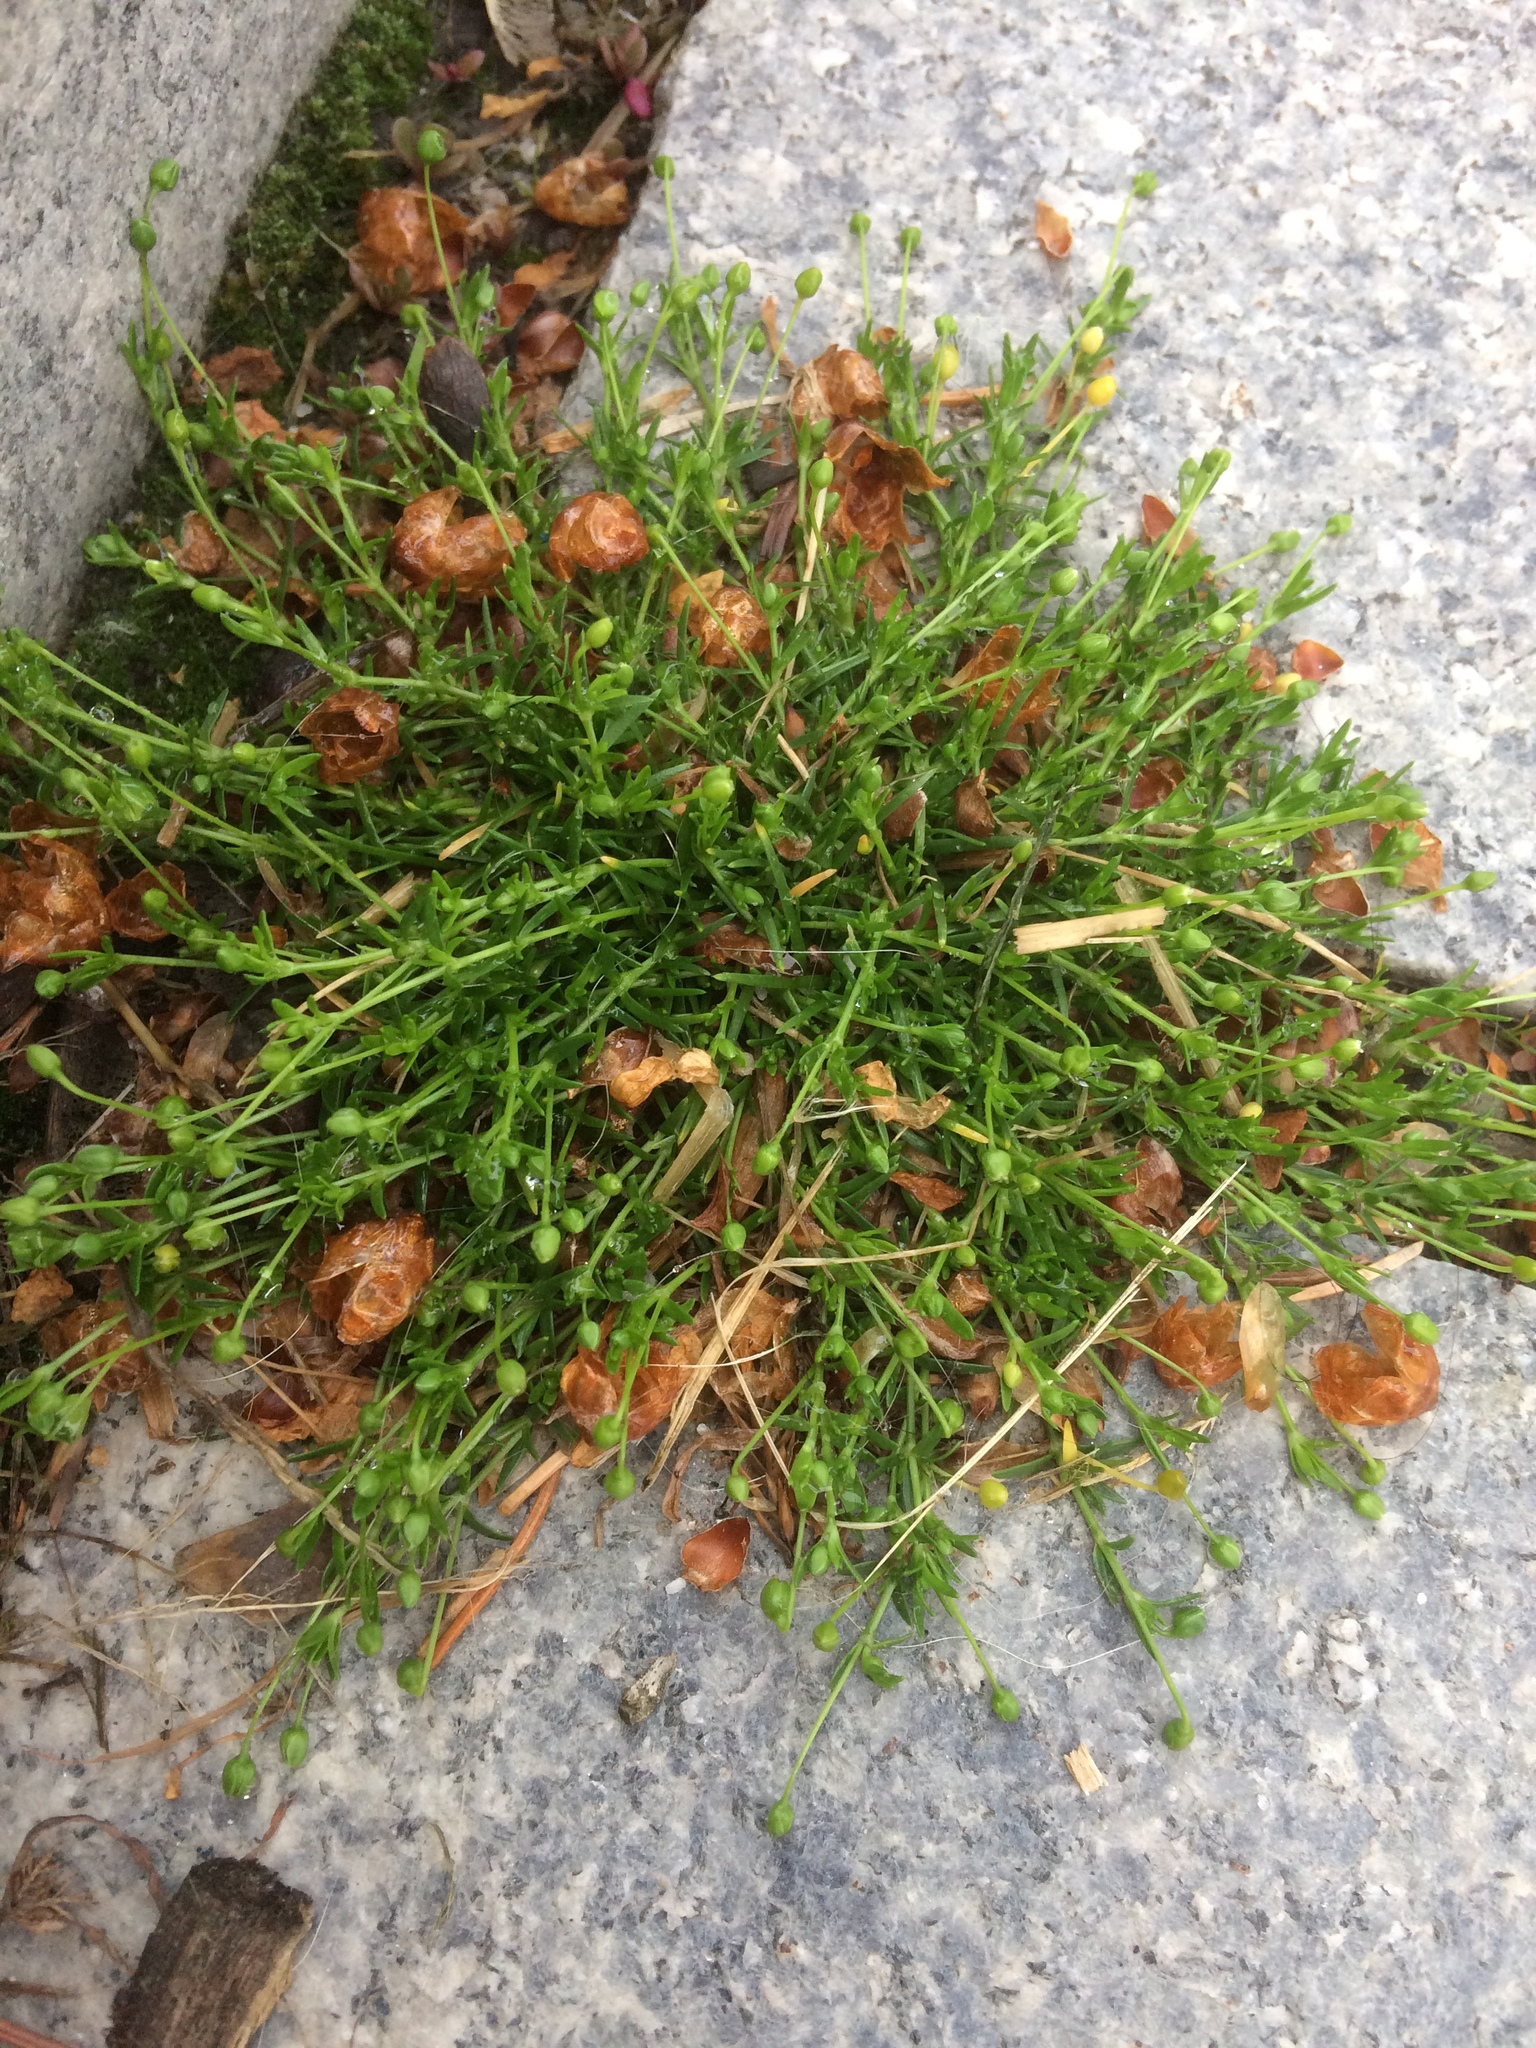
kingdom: Plantae
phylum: Tracheophyta
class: Magnoliopsida
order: Caryophyllales
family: Caryophyllaceae
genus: Sagina
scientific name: Sagina procumbens
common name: Procumbent pearlwort
